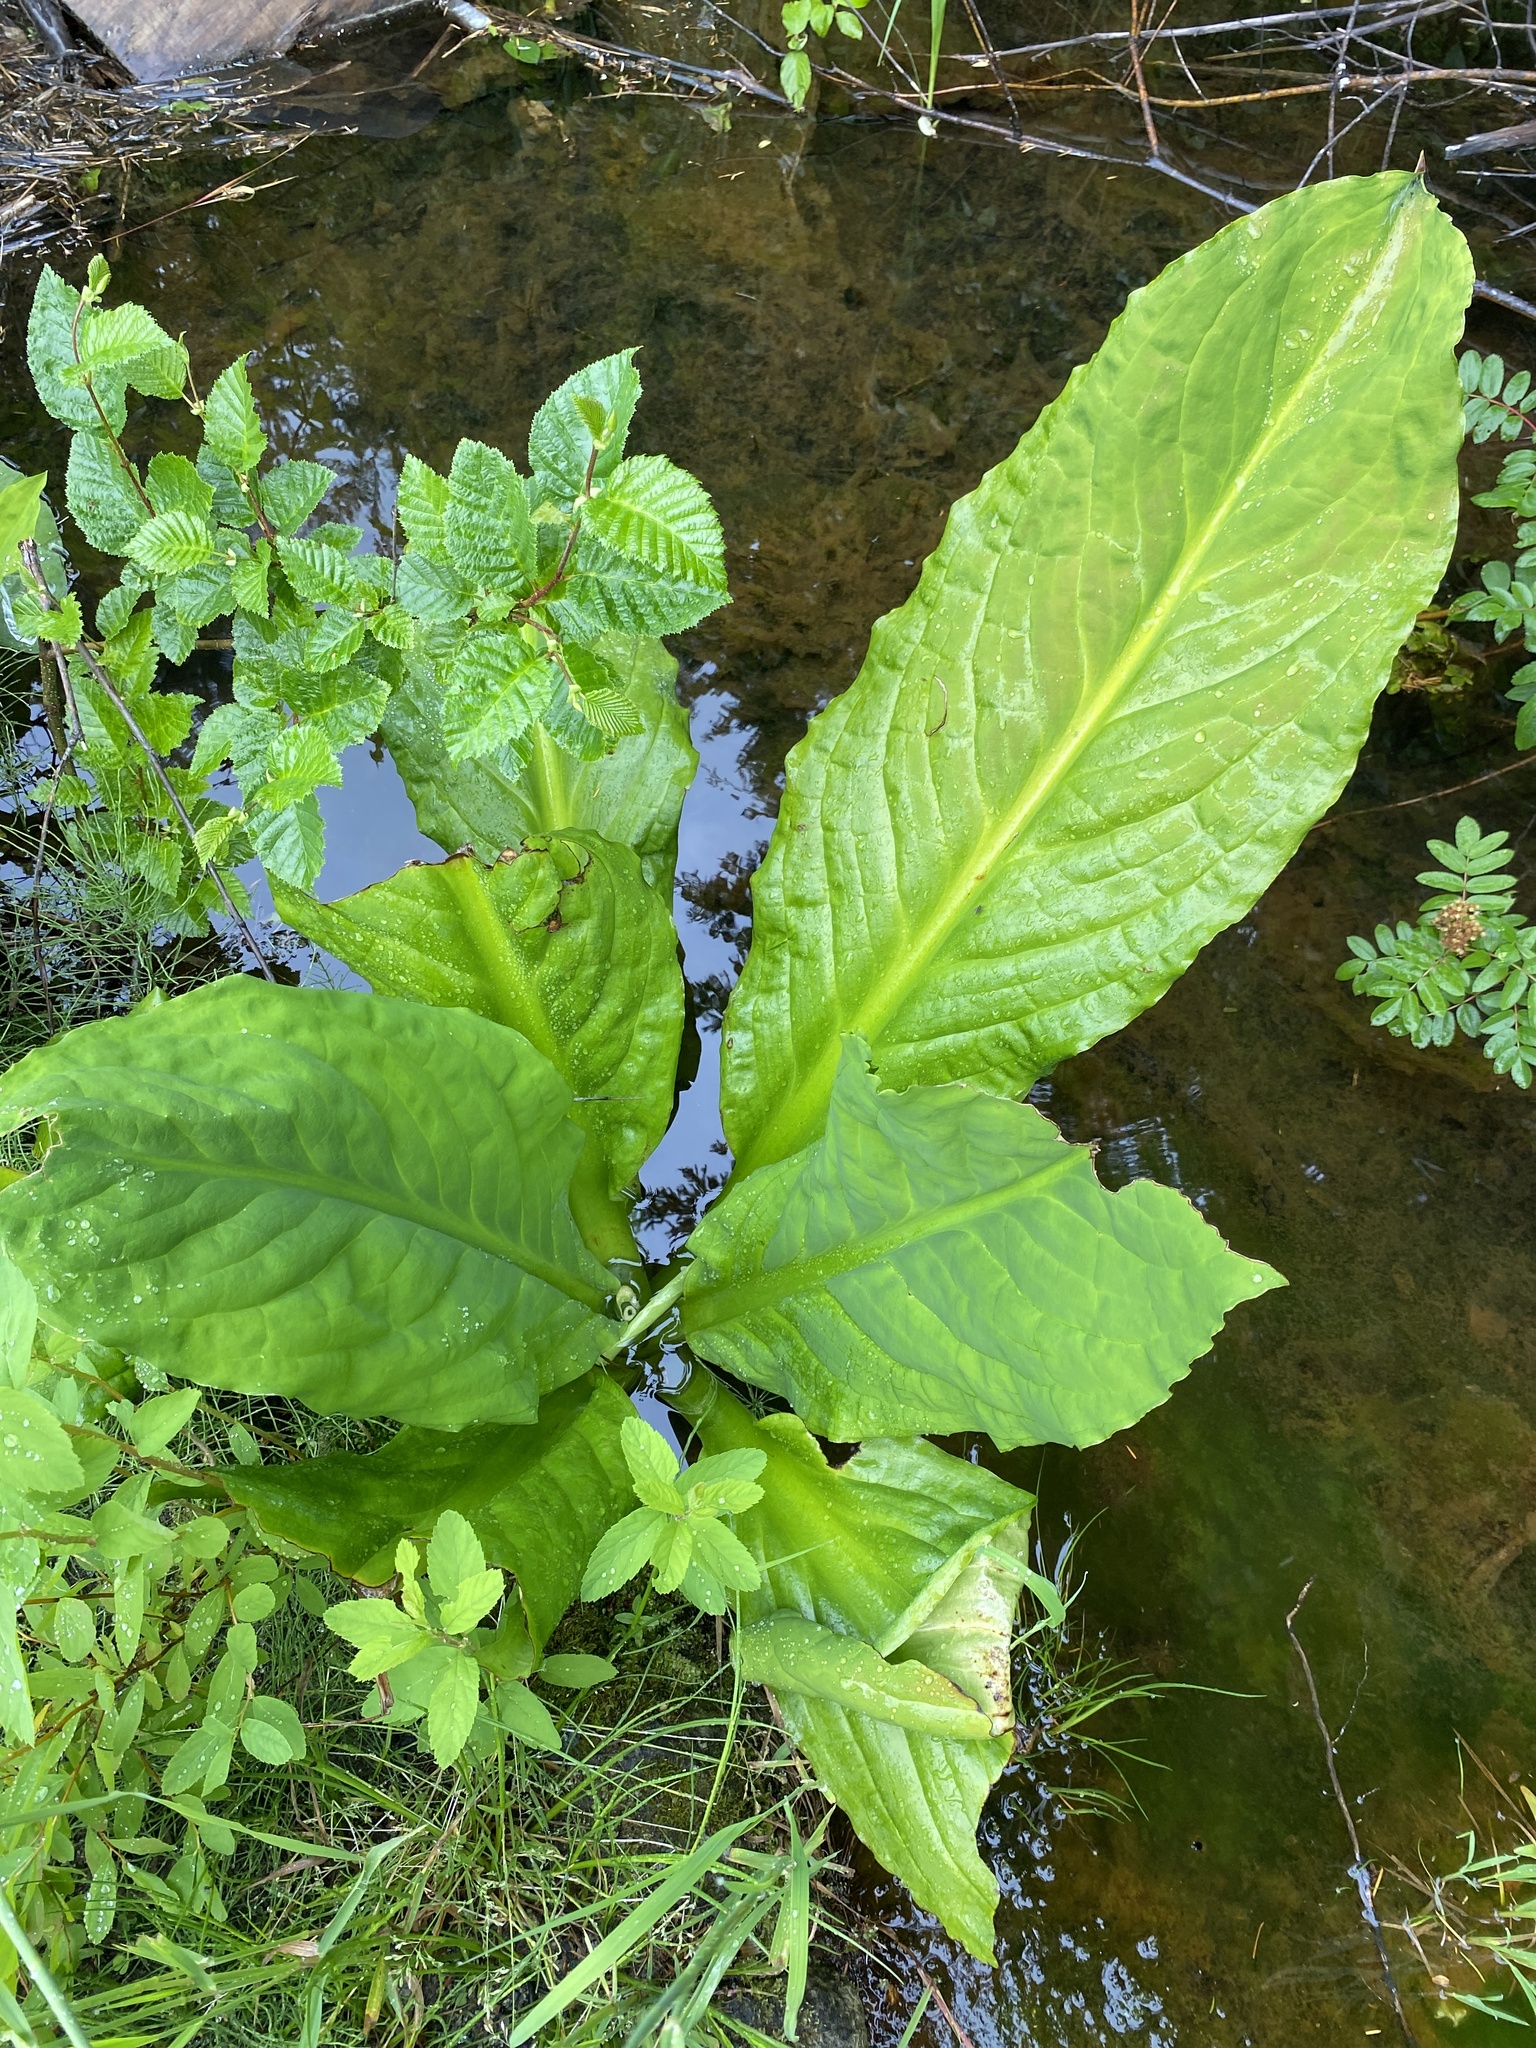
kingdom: Plantae
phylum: Tracheophyta
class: Liliopsida
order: Alismatales
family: Araceae
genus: Lysichiton
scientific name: Lysichiton americanus
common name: American skunk cabbage
